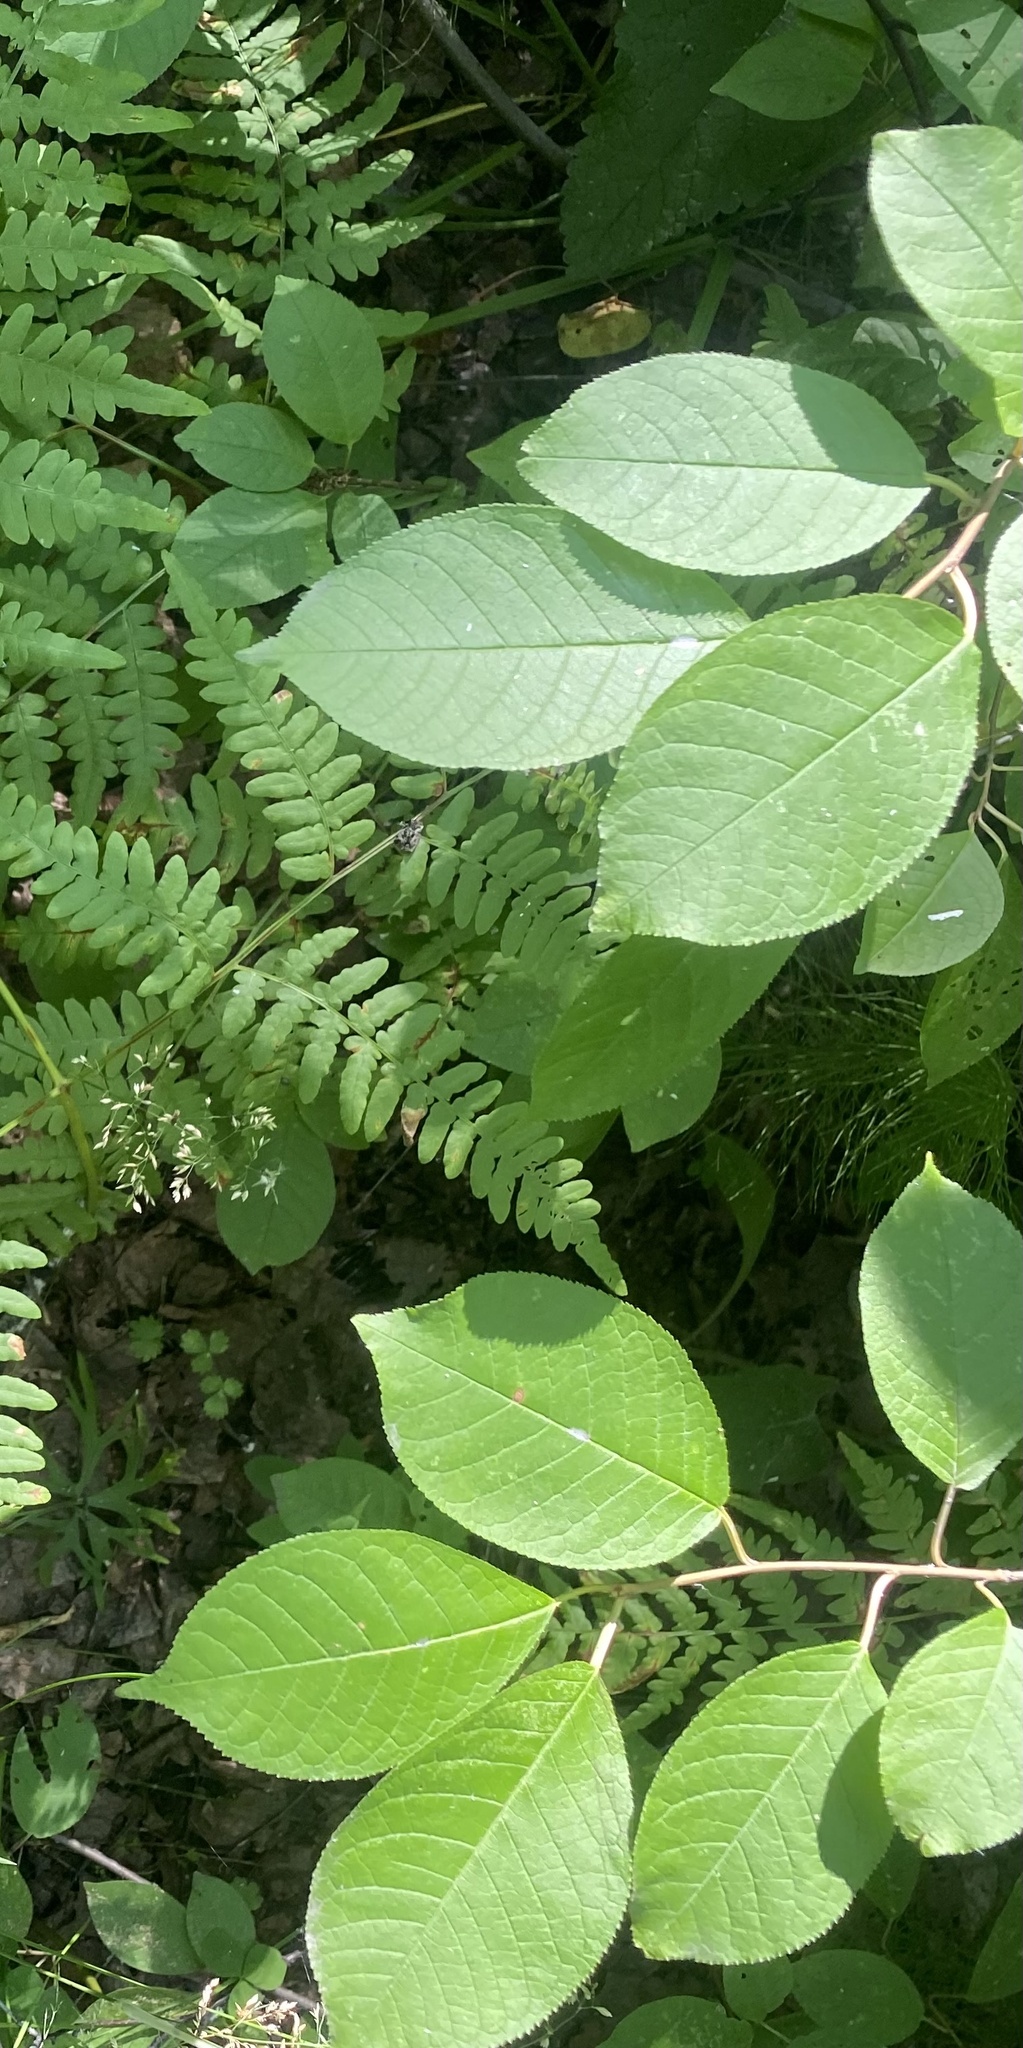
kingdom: Plantae
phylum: Tracheophyta
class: Magnoliopsida
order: Rosales
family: Rosaceae
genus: Prunus
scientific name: Prunus padus
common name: Bird cherry
